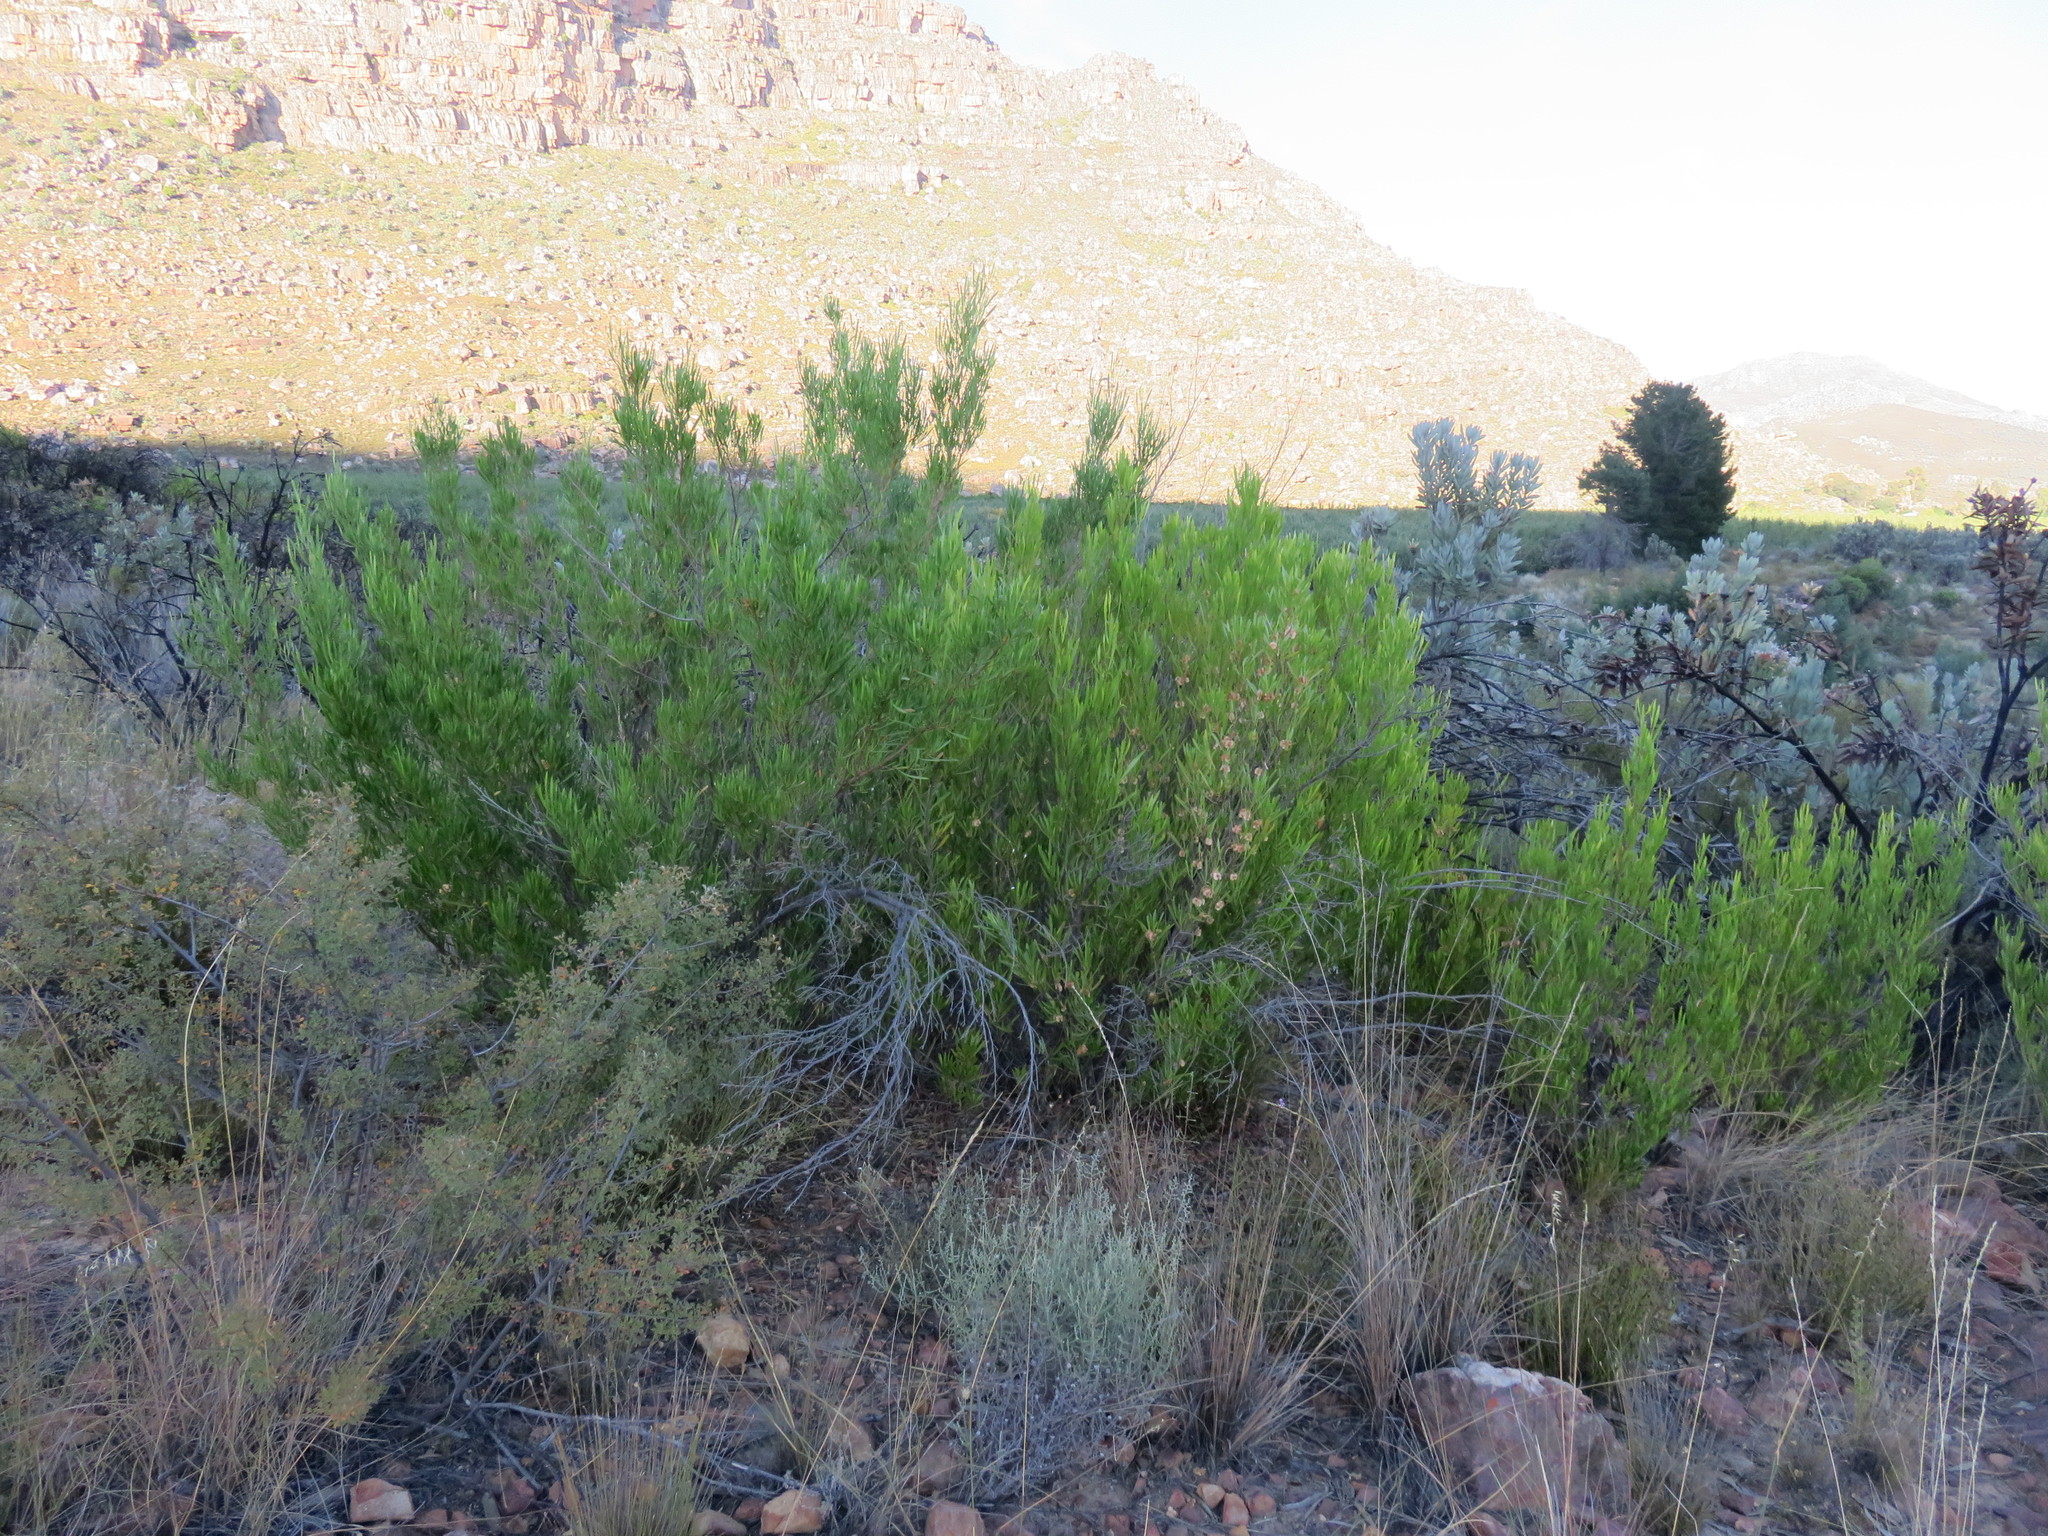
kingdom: Plantae
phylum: Tracheophyta
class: Magnoliopsida
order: Sapindales
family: Sapindaceae
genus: Dodonaea
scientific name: Dodonaea viscosa
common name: Hopbush
